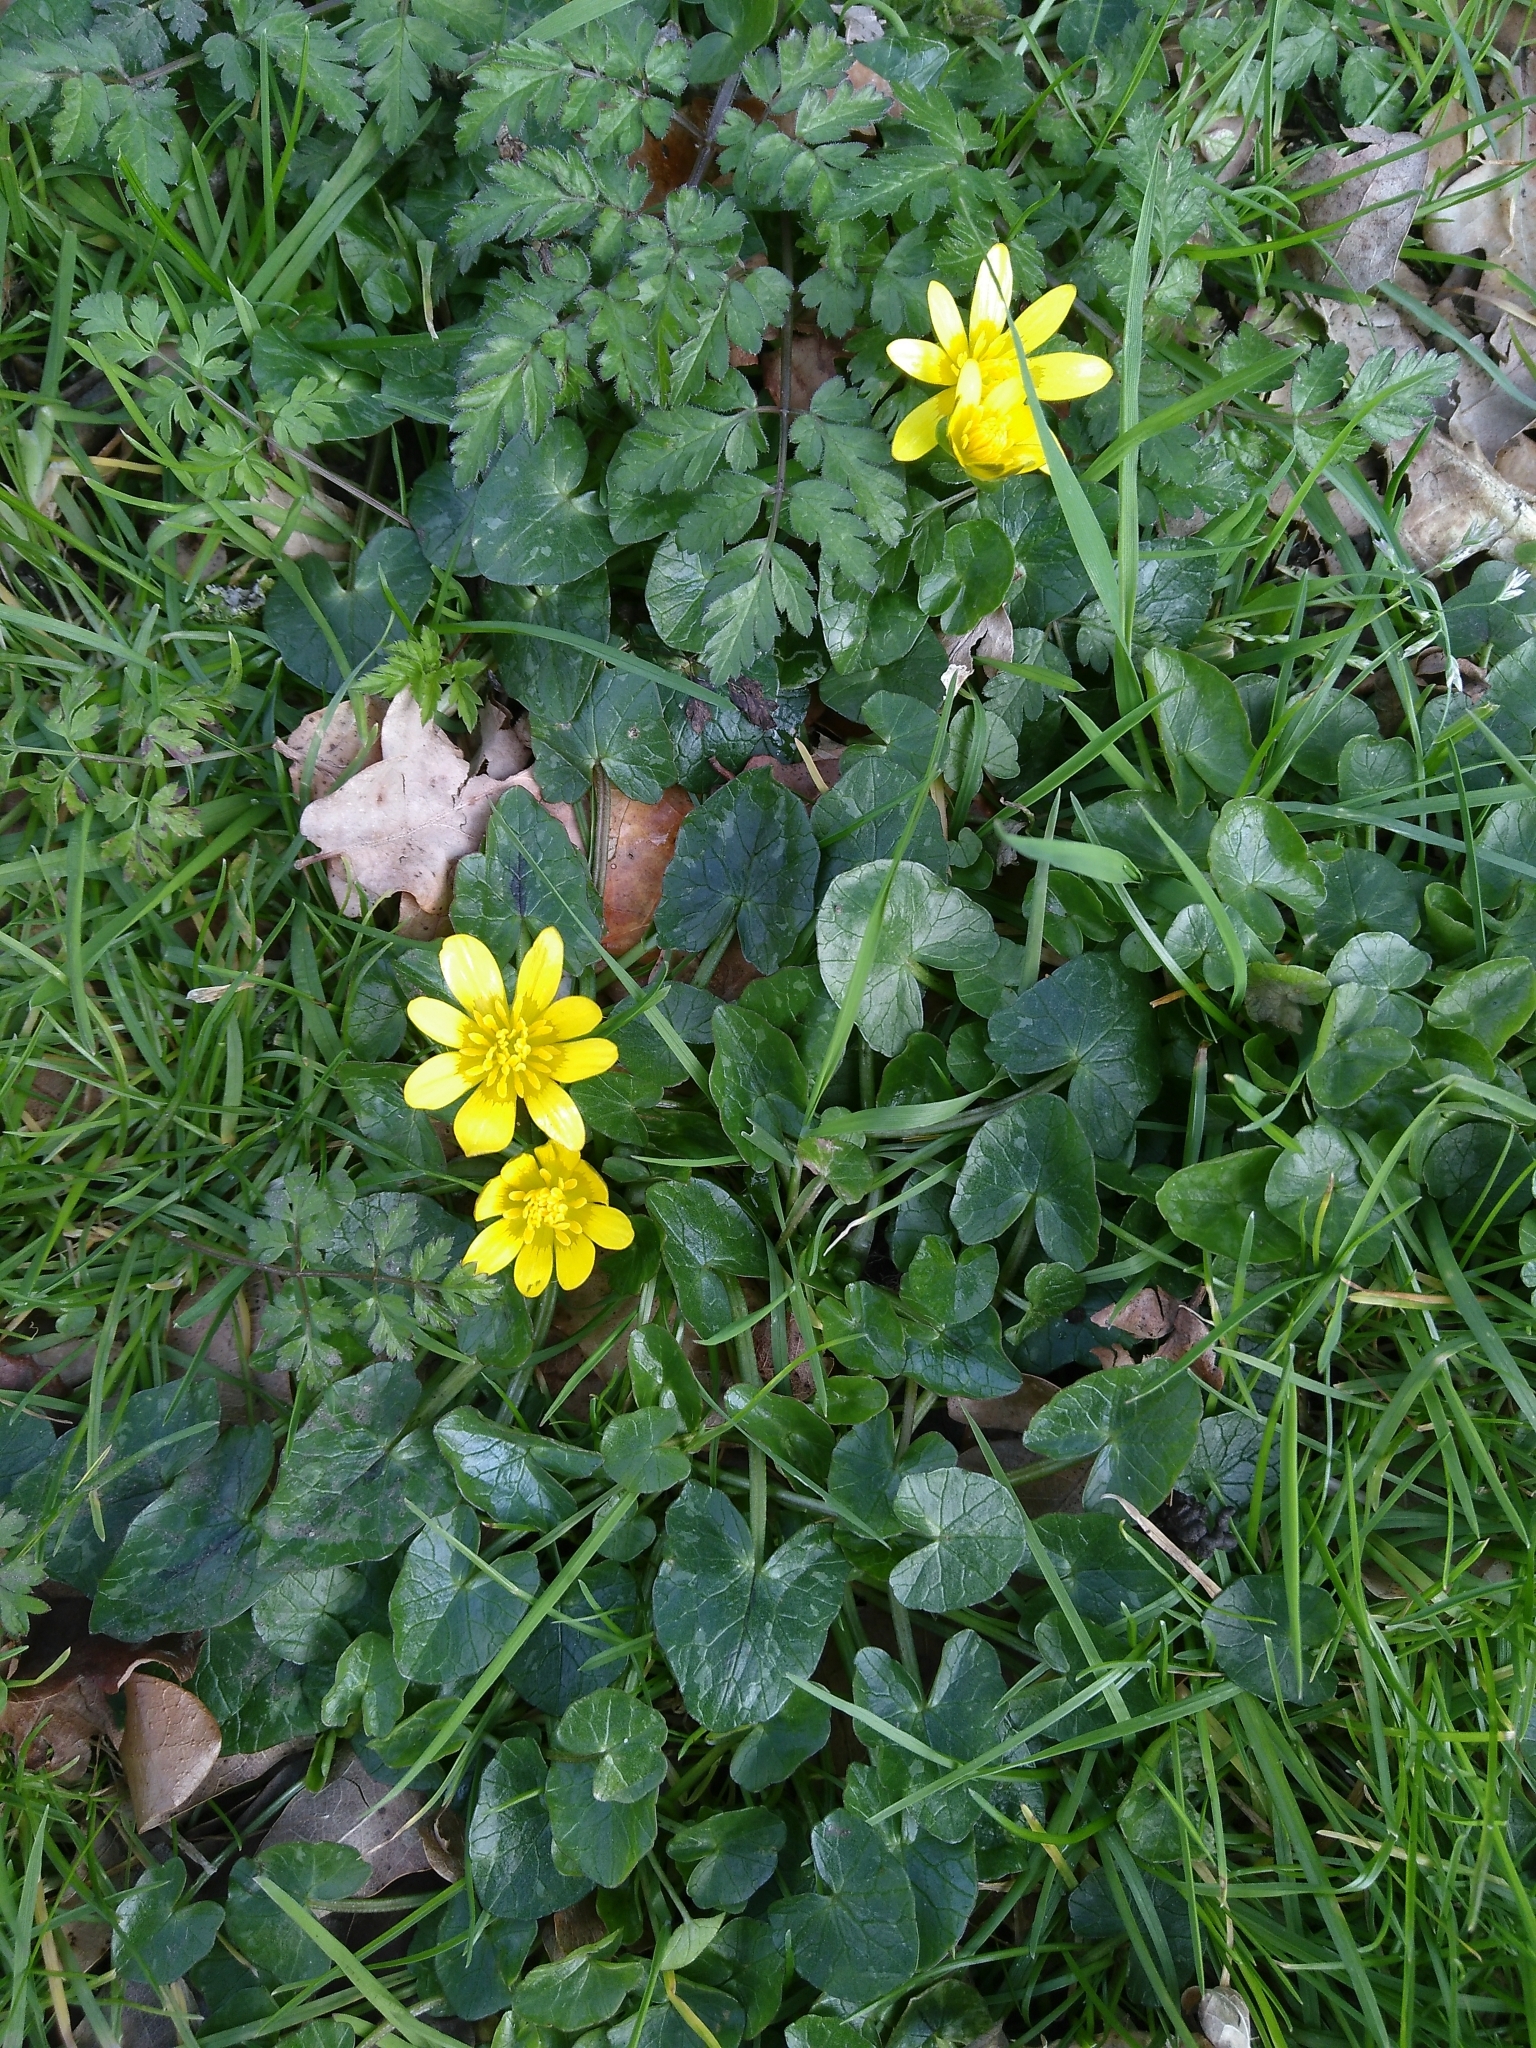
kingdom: Plantae
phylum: Tracheophyta
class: Magnoliopsida
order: Ranunculales
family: Ranunculaceae
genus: Ficaria
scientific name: Ficaria verna
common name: Lesser celandine
